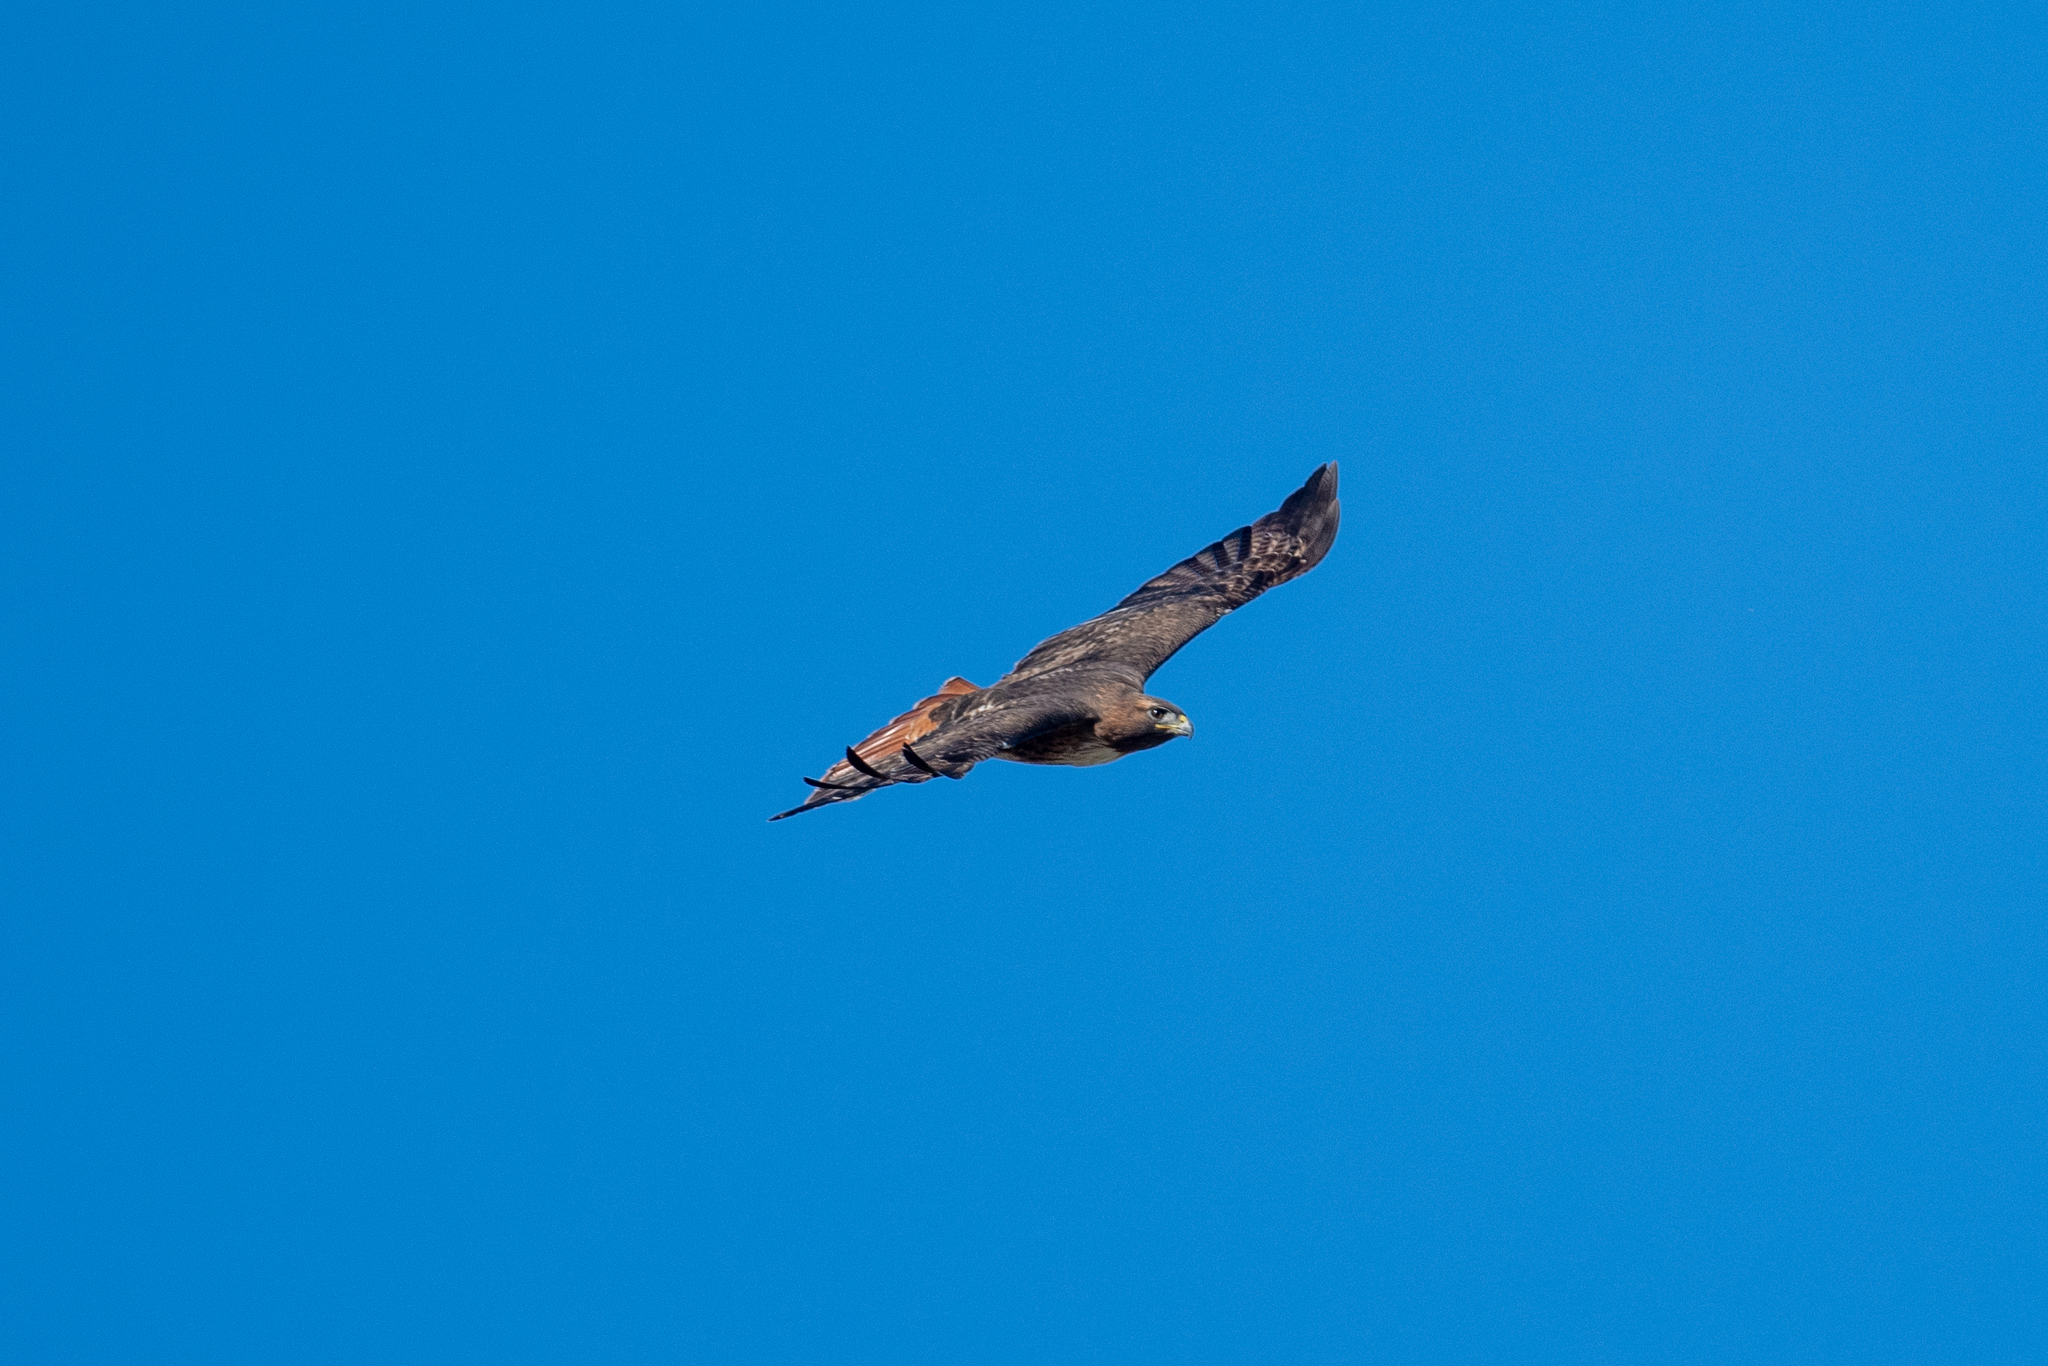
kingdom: Animalia
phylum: Chordata
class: Aves
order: Accipitriformes
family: Accipitridae
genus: Buteo
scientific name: Buteo jamaicensis
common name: Red-tailed hawk
